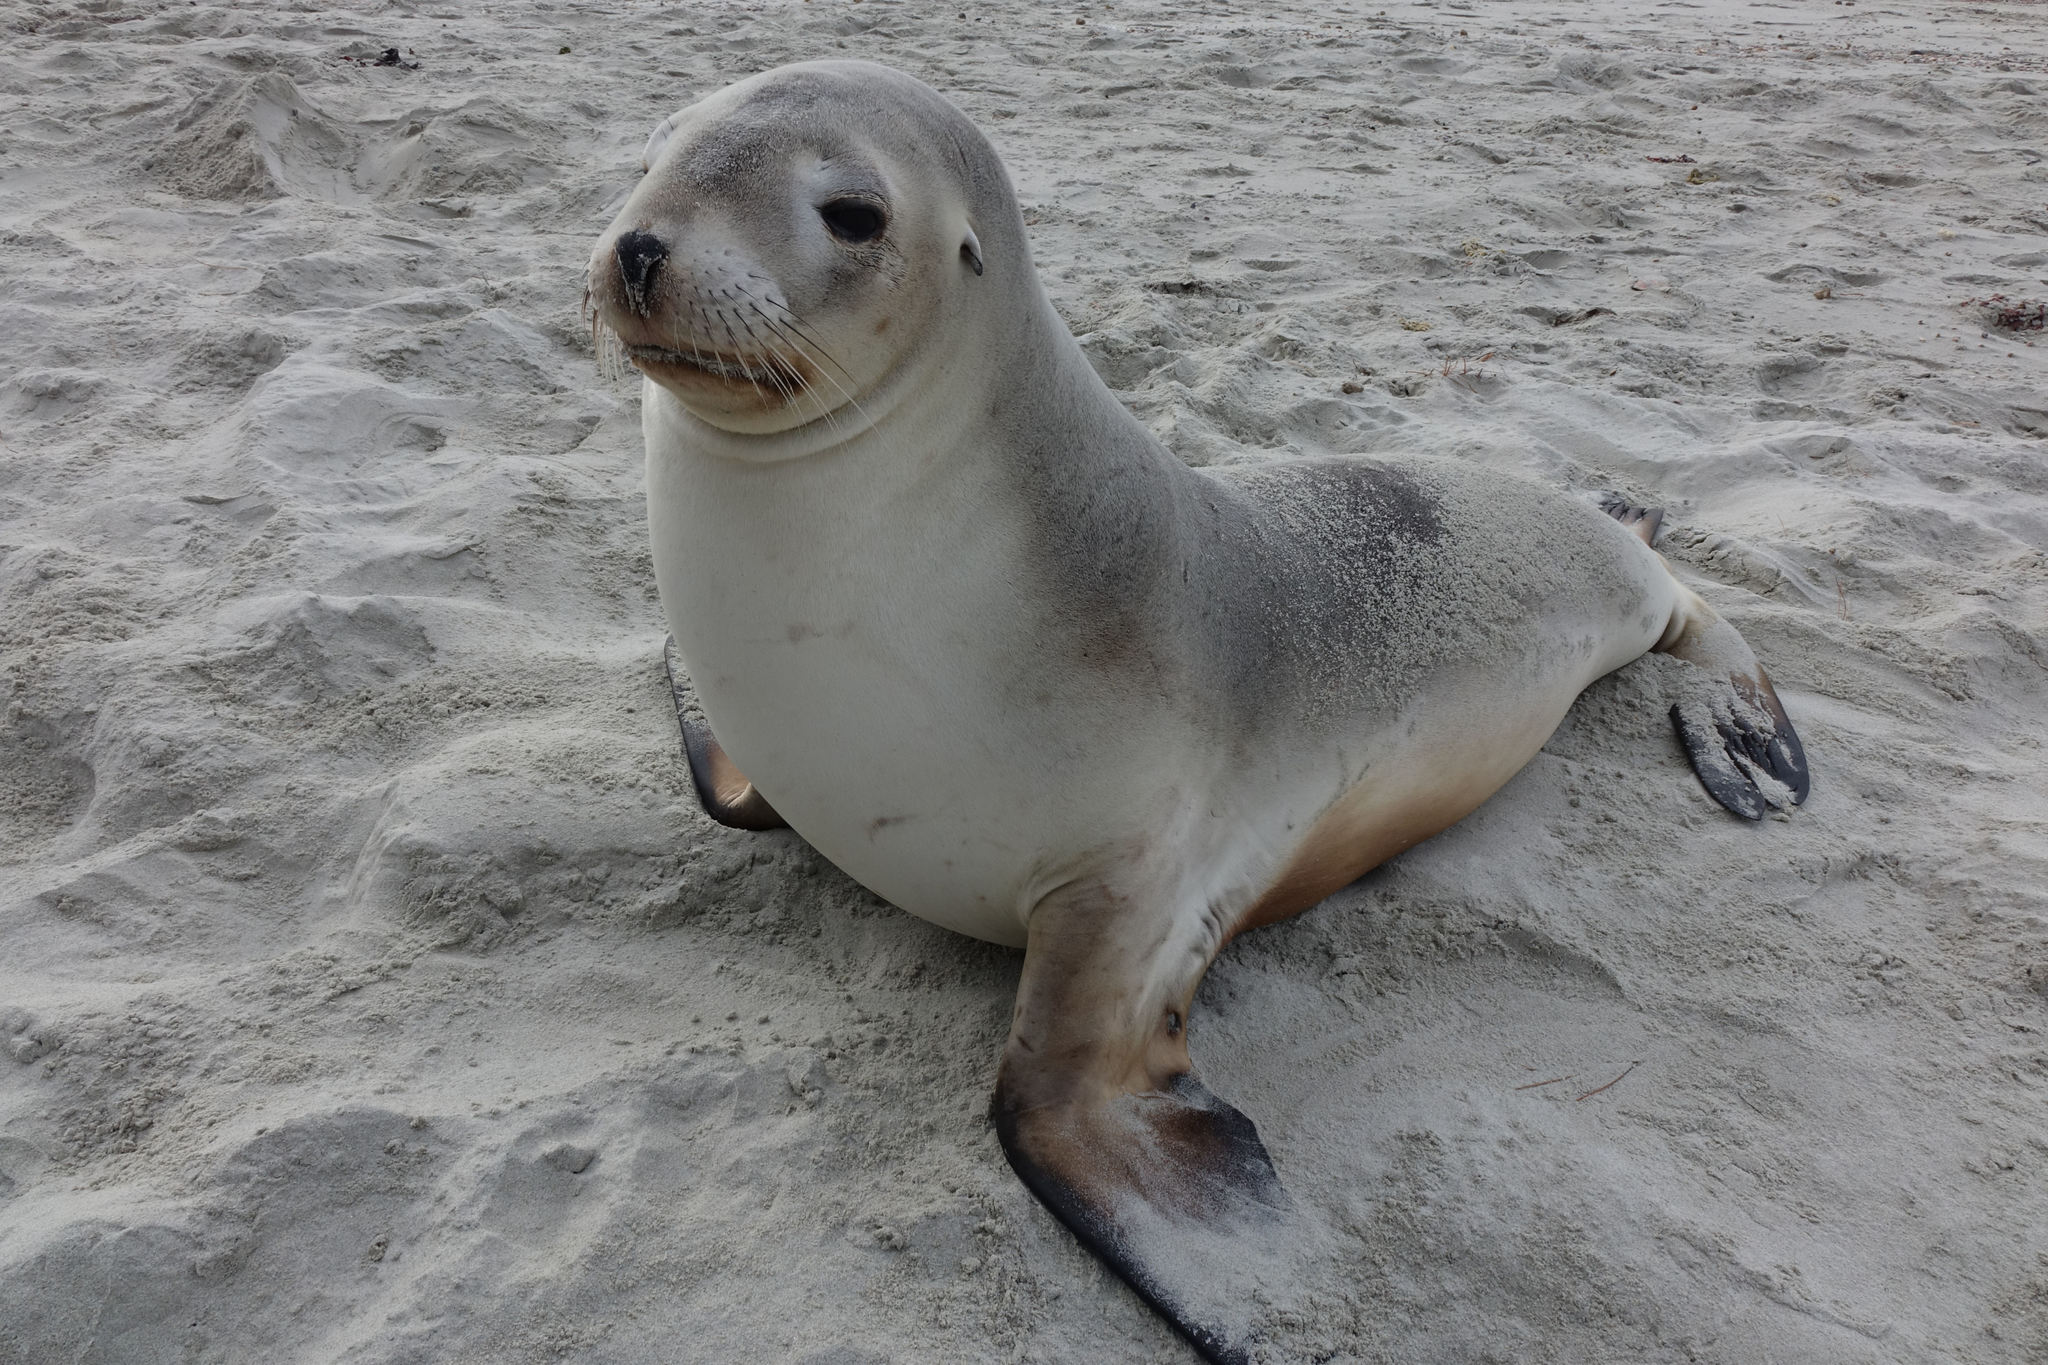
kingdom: Animalia
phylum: Chordata
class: Mammalia
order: Carnivora
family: Otariidae
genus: Phocarctos
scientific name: Phocarctos hookeri
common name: New zealand sea lion
